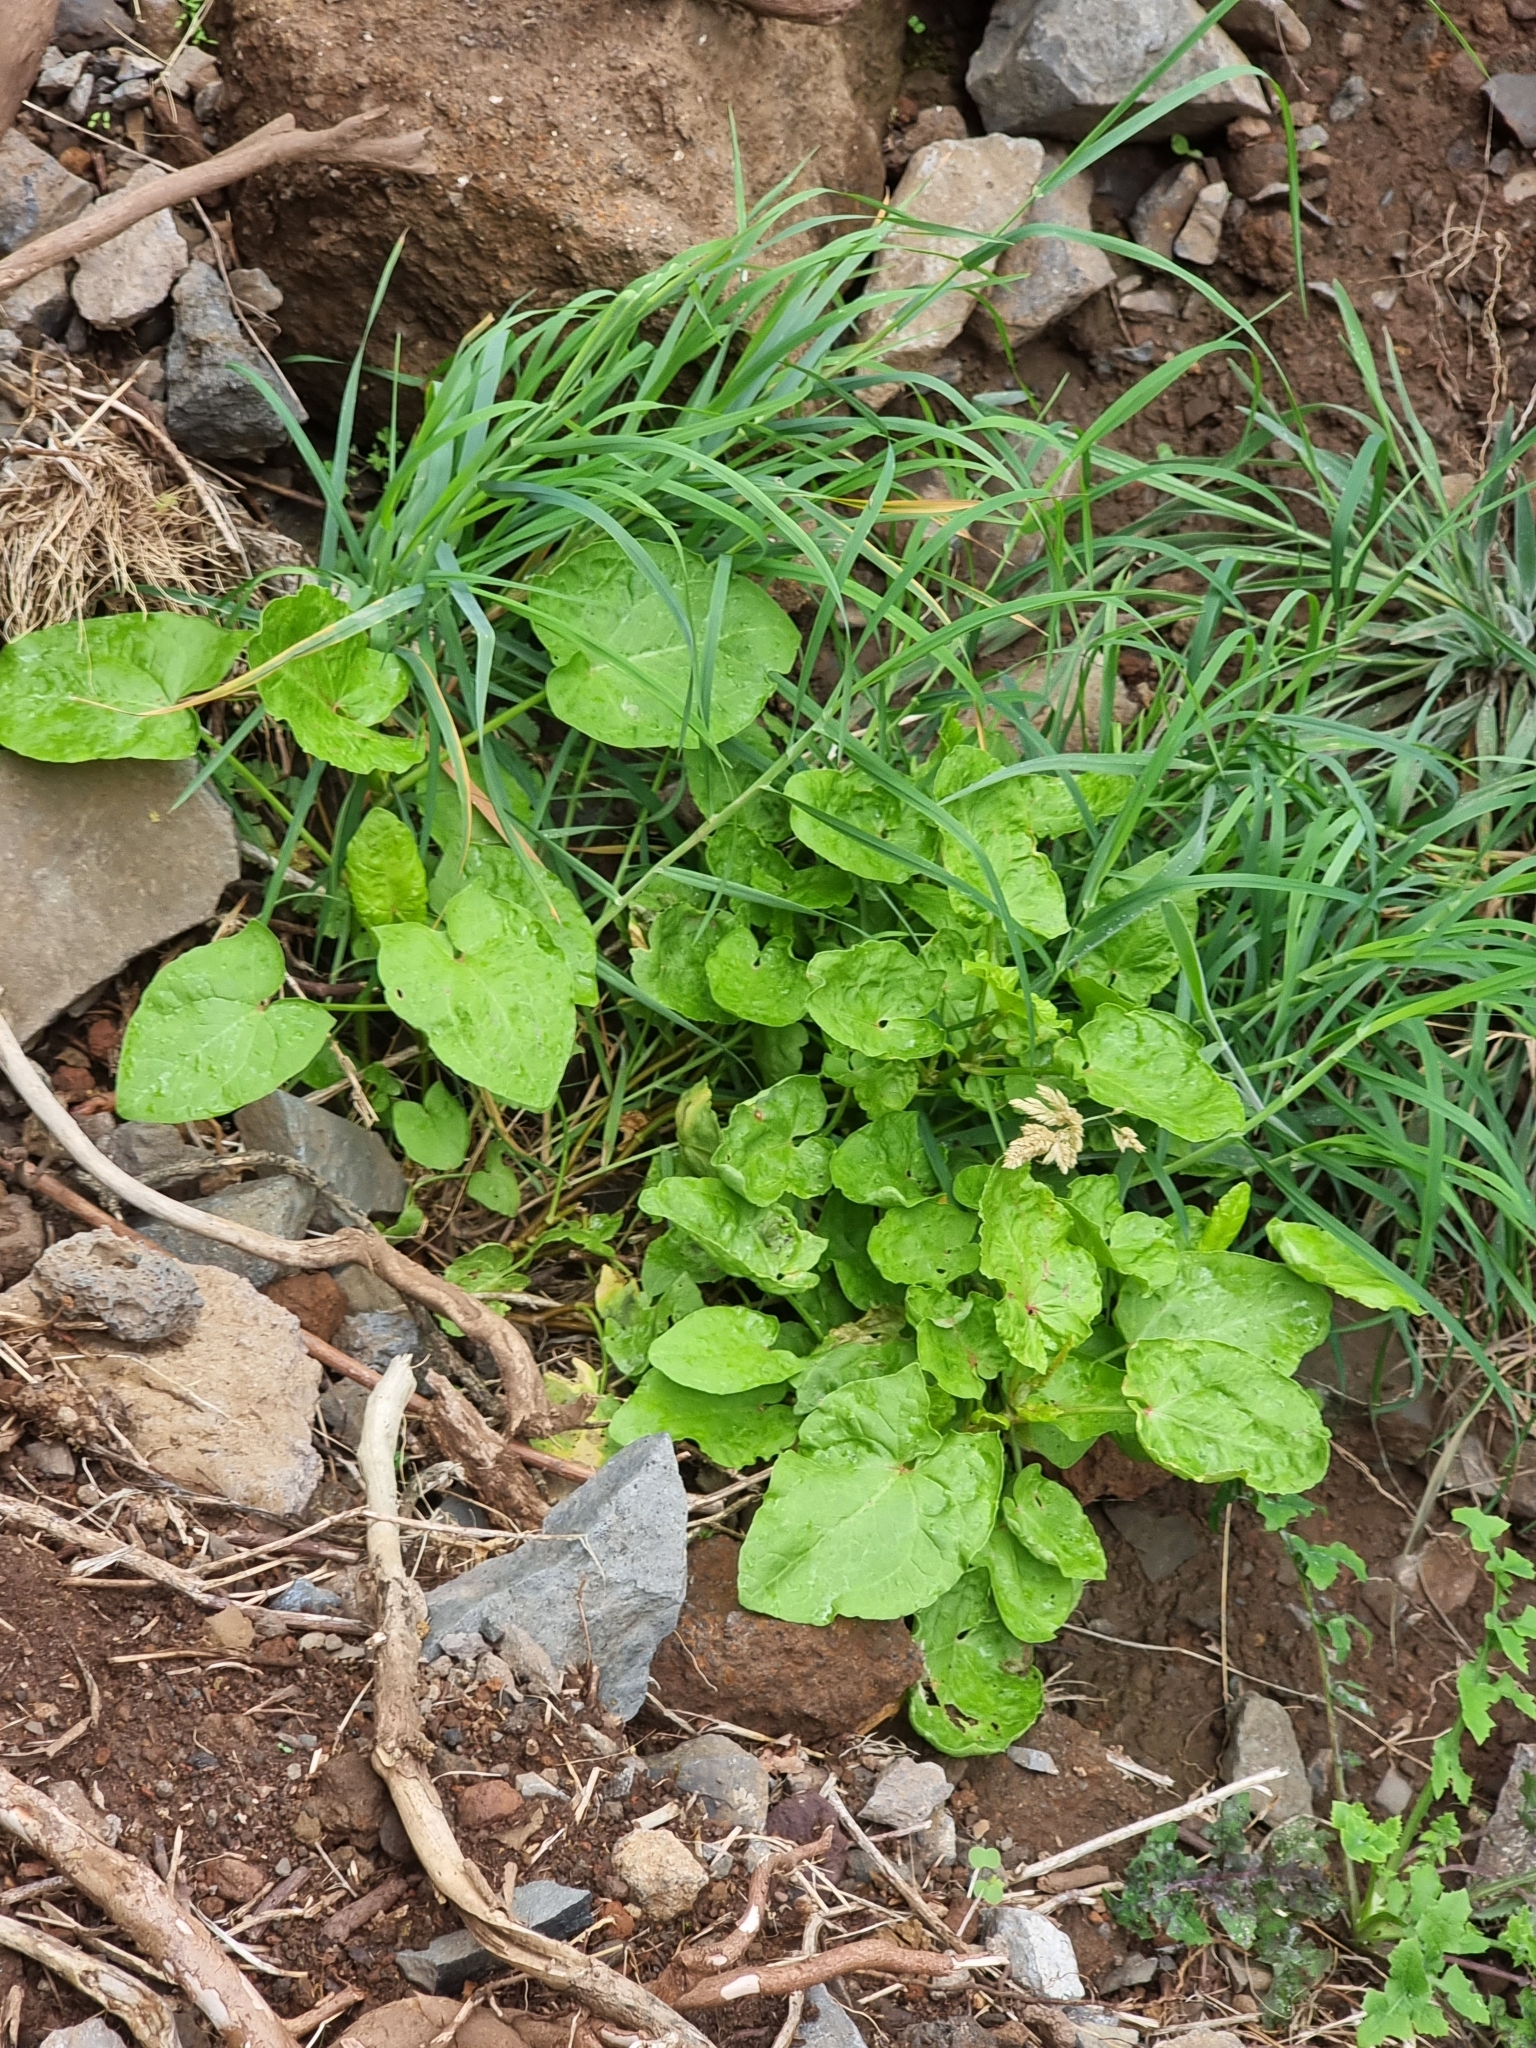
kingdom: Plantae
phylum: Tracheophyta
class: Magnoliopsida
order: Caryophyllales
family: Polygonaceae
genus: Rumex
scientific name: Rumex maderensis
